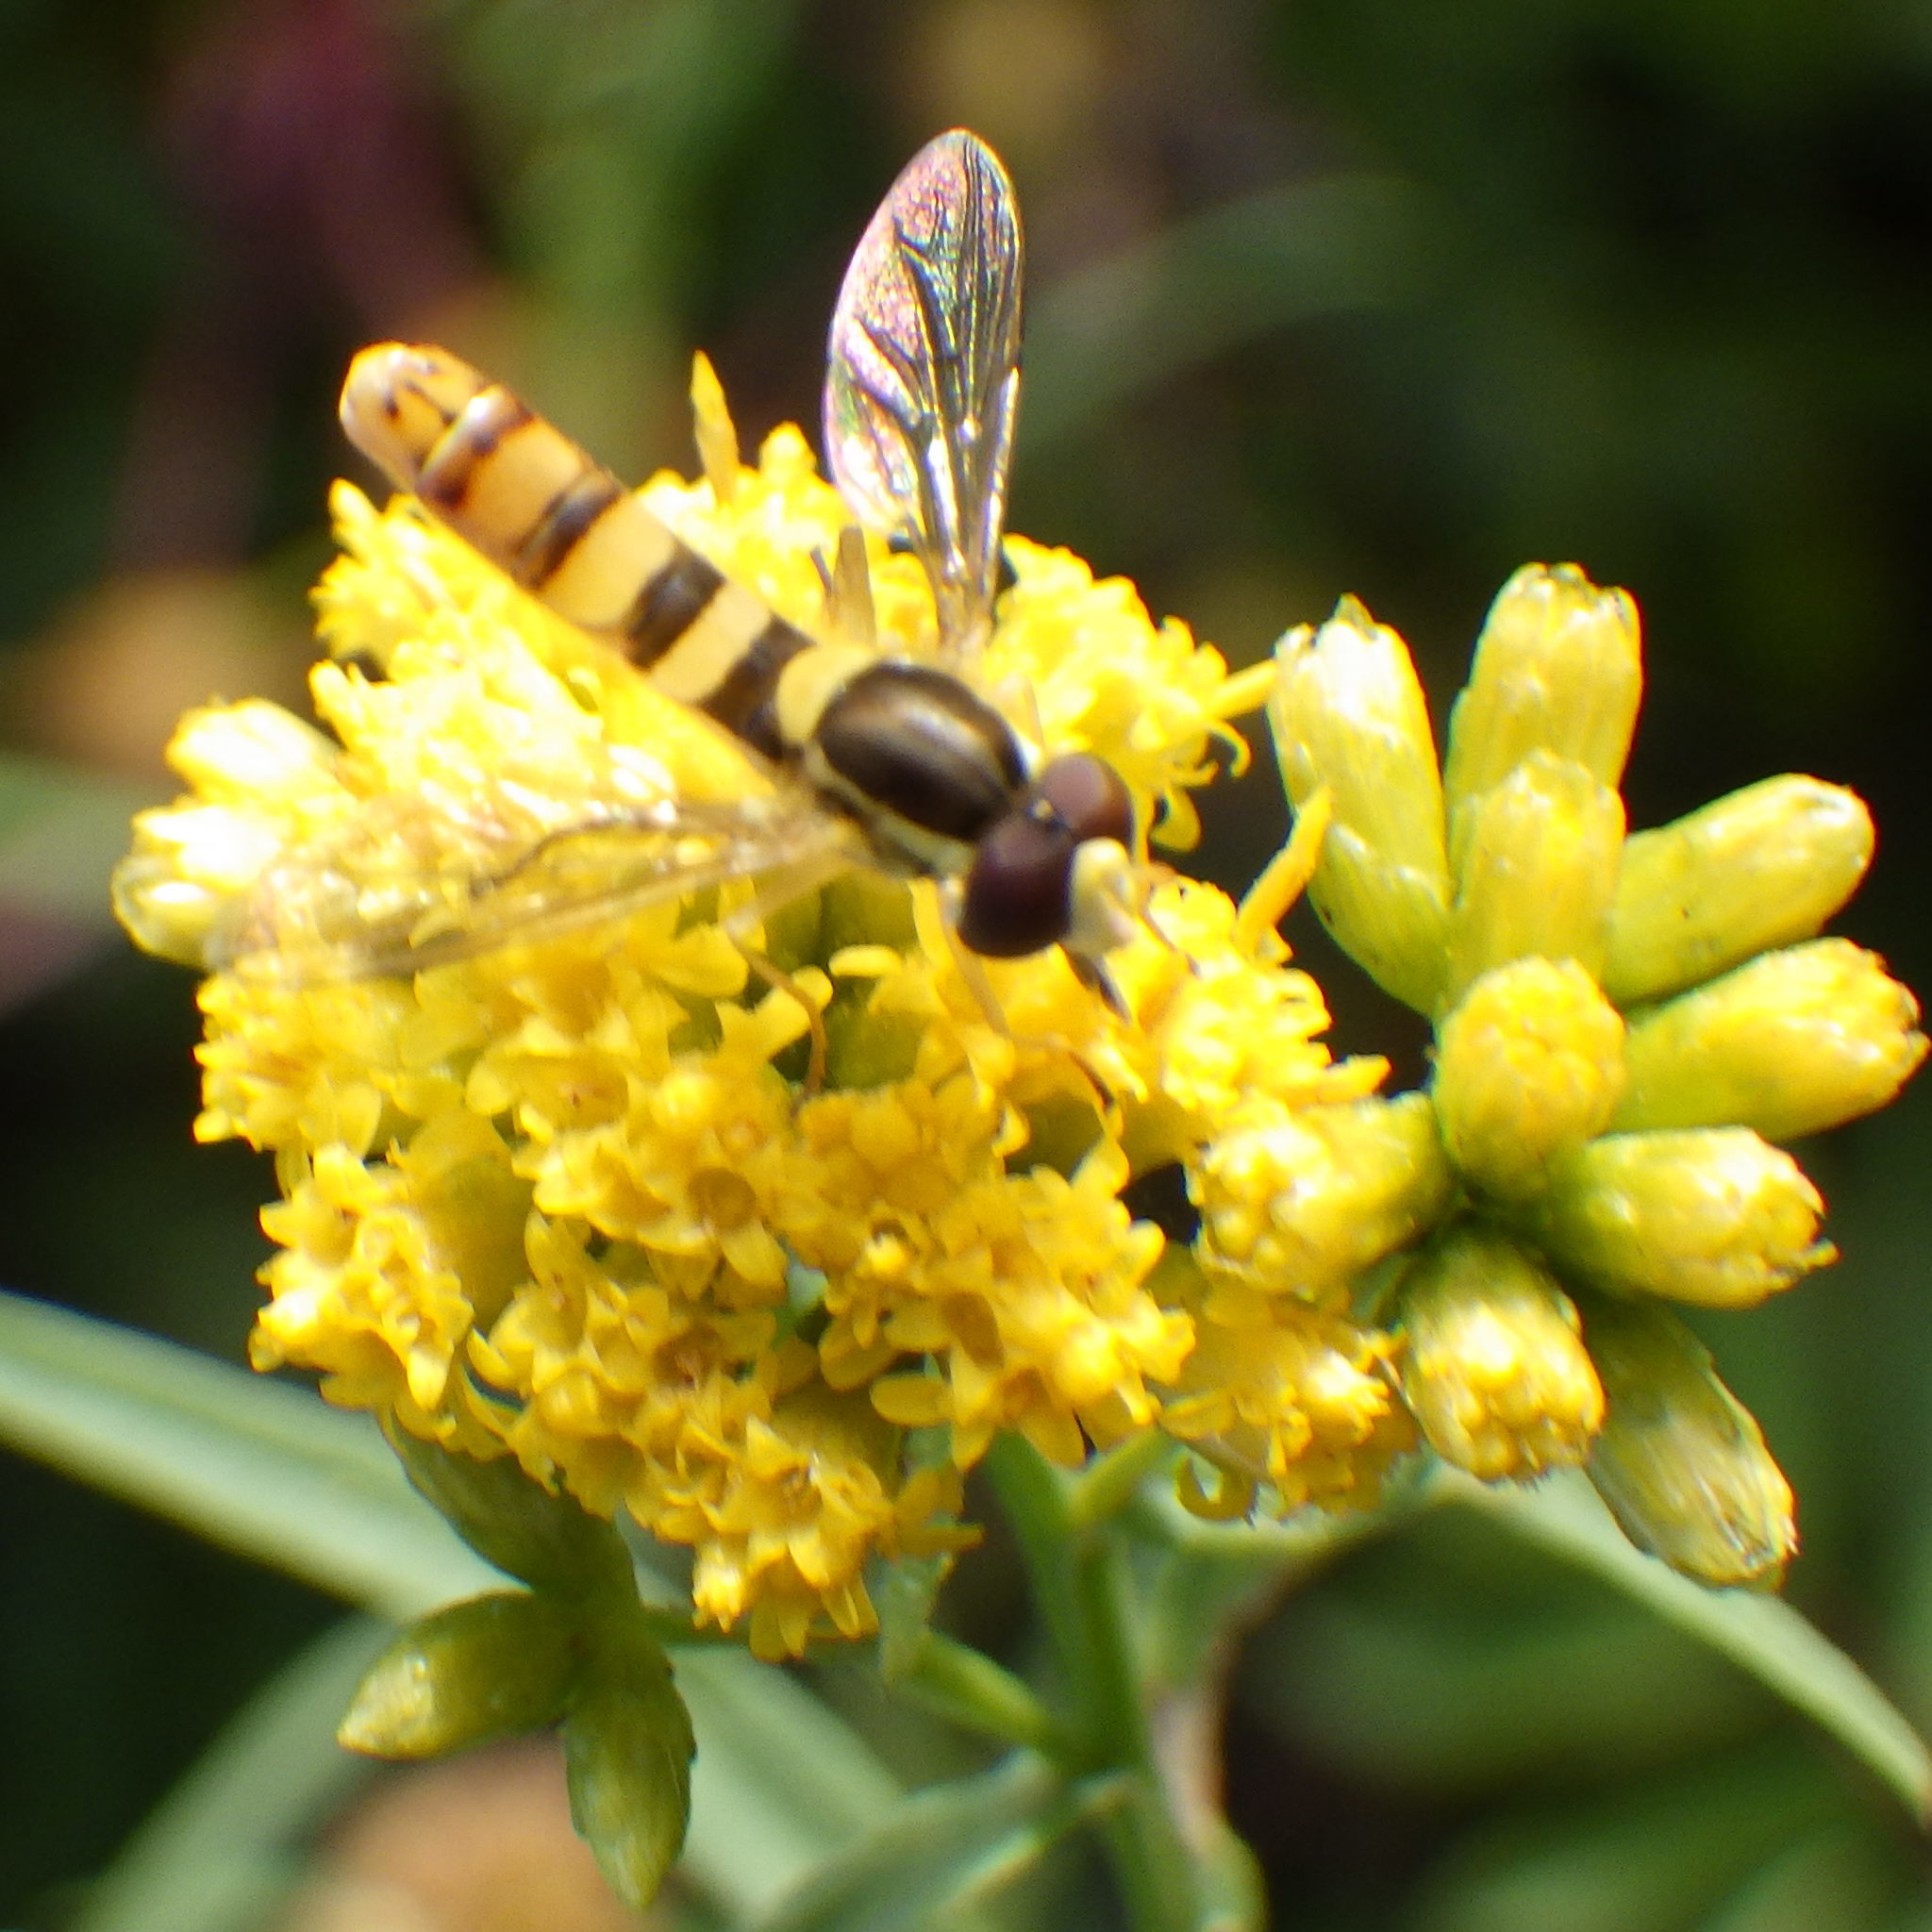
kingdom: Animalia
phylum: Arthropoda
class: Insecta
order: Diptera
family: Syrphidae
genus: Sphaerophoria
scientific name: Sphaerophoria philantha
